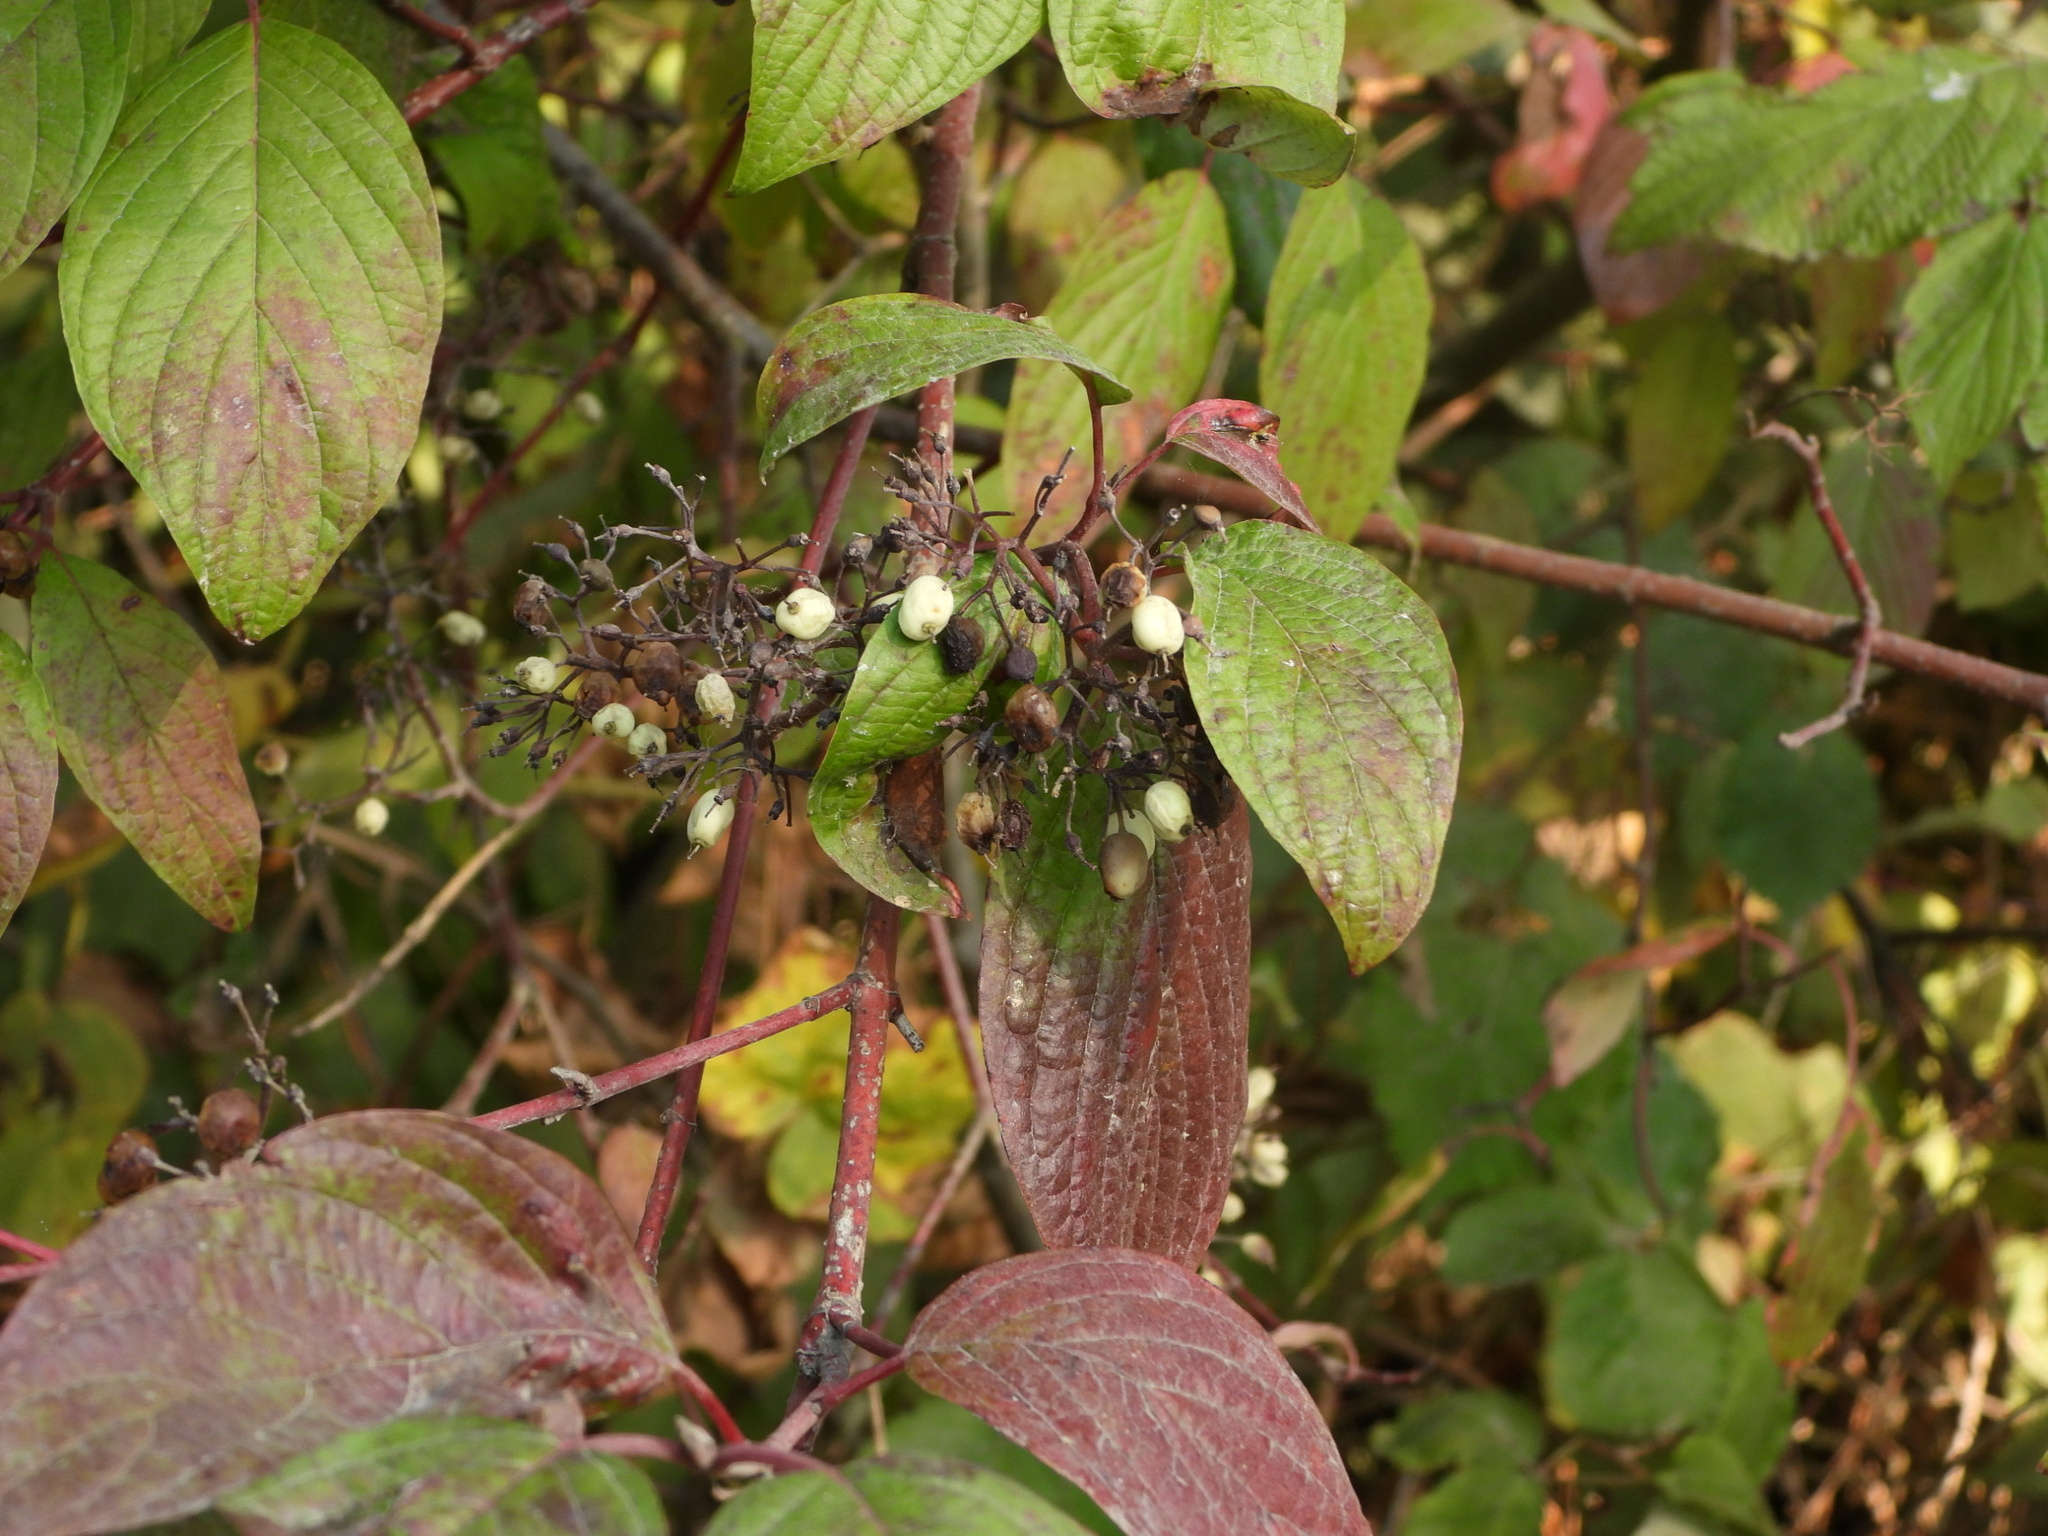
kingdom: Plantae
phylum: Tracheophyta
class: Magnoliopsida
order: Cornales
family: Cornaceae
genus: Cornus
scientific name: Cornus sericea
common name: Red-osier dogwood
